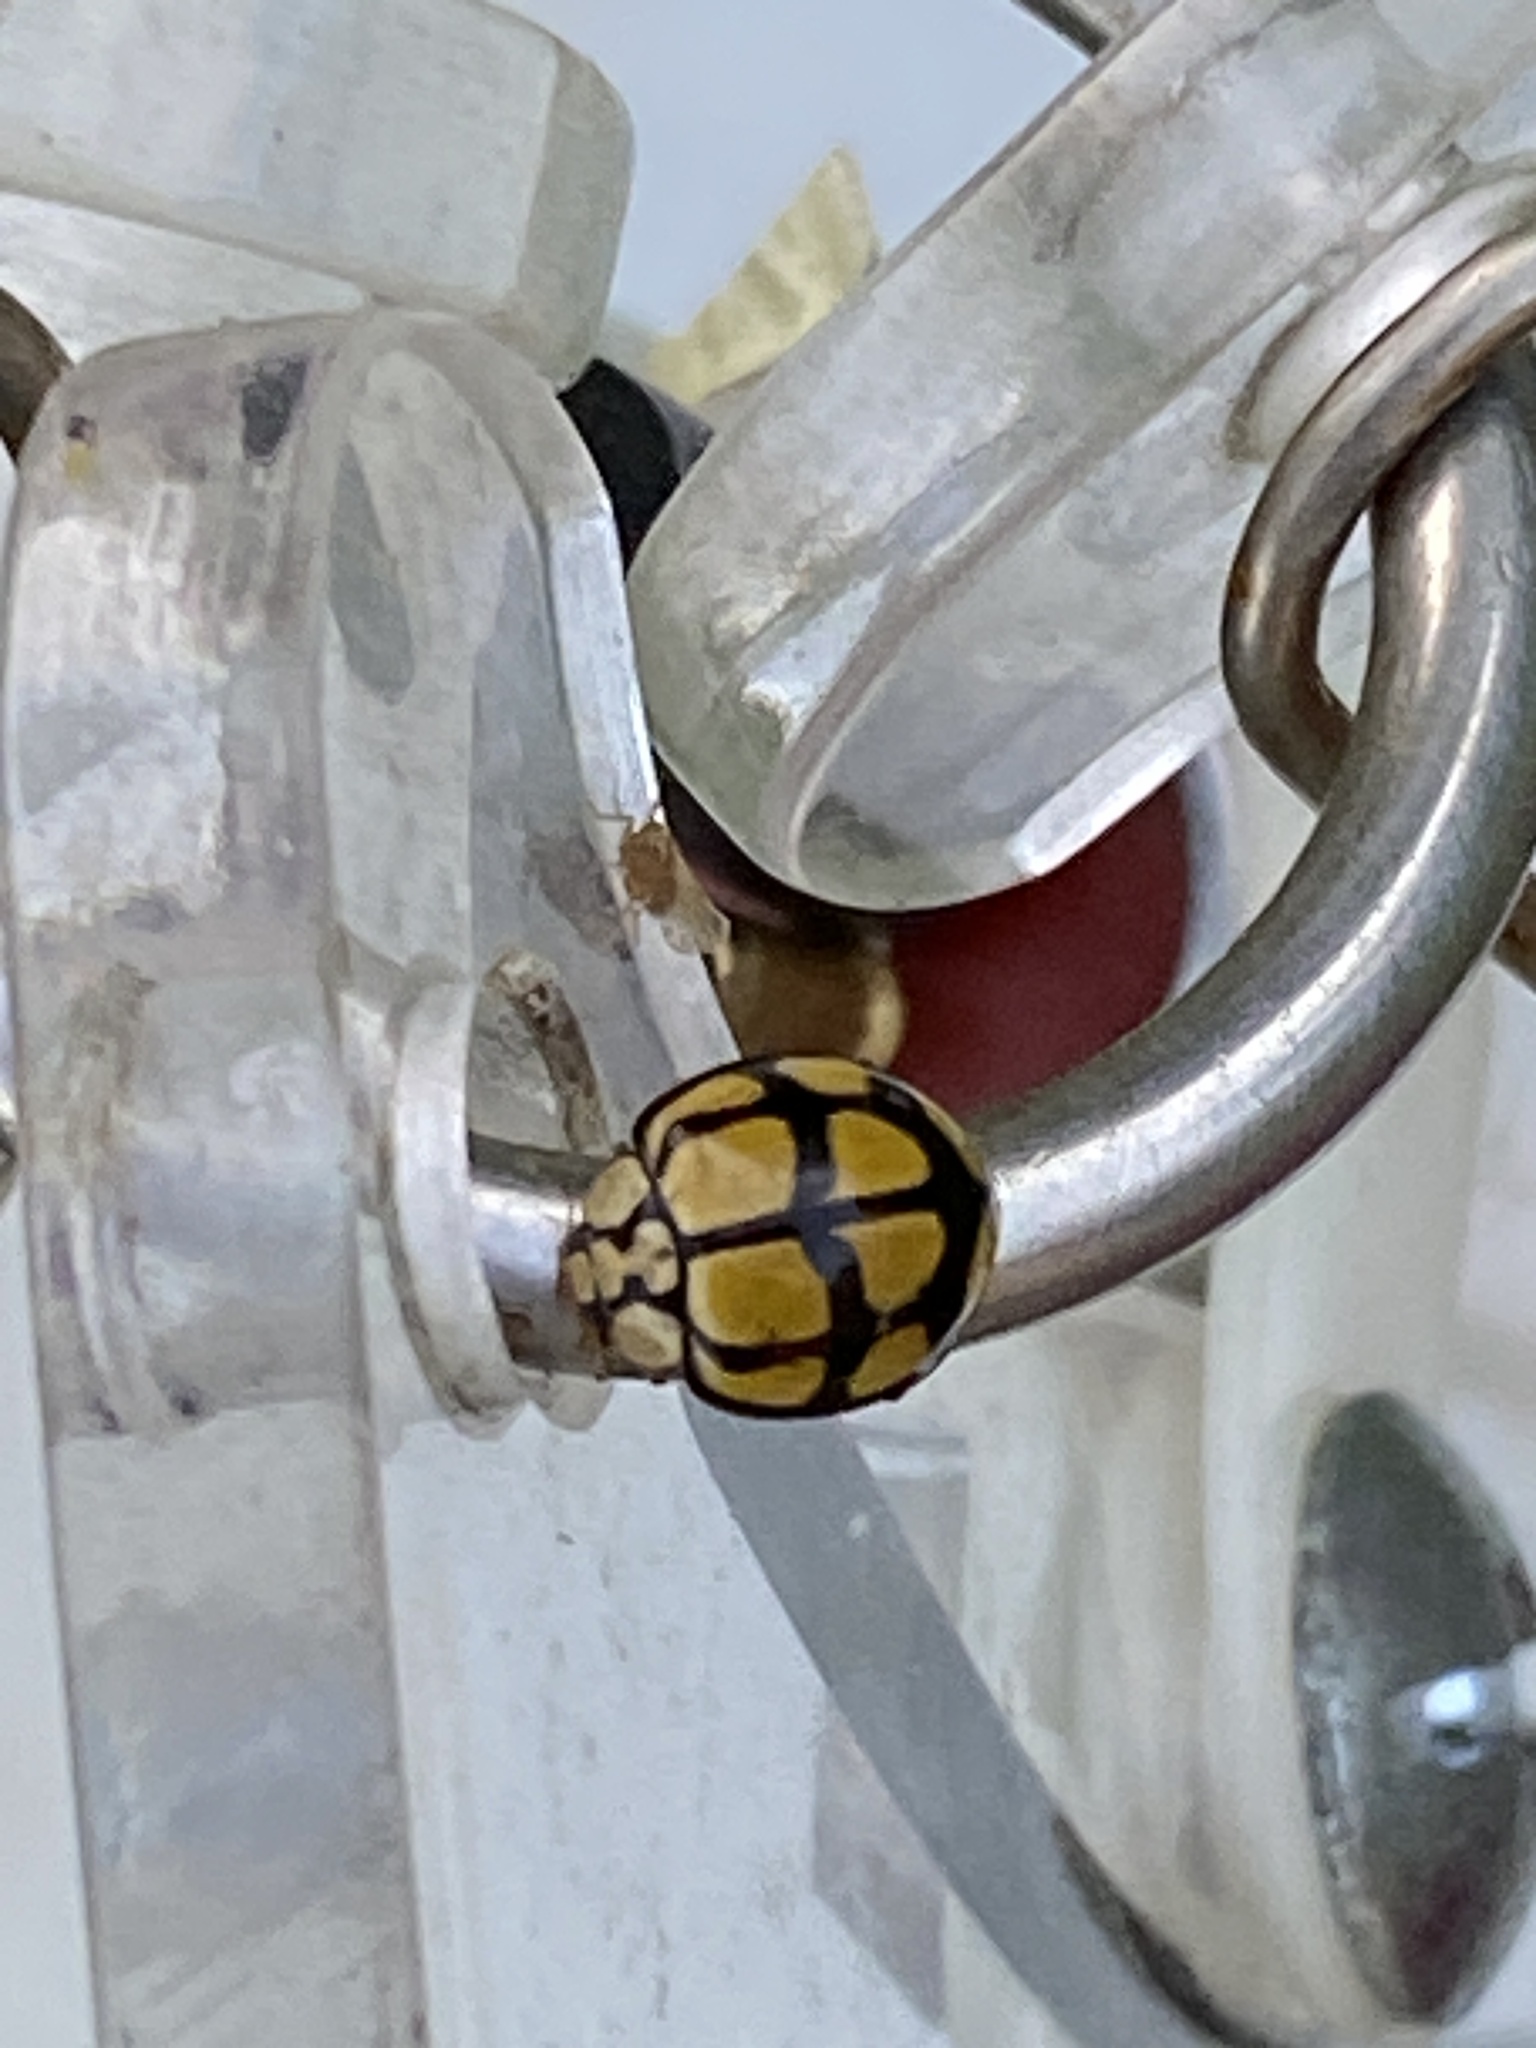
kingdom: Animalia
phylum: Arthropoda
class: Insecta
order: Coleoptera
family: Coccinellidae
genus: Harmonia
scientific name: Harmonia
